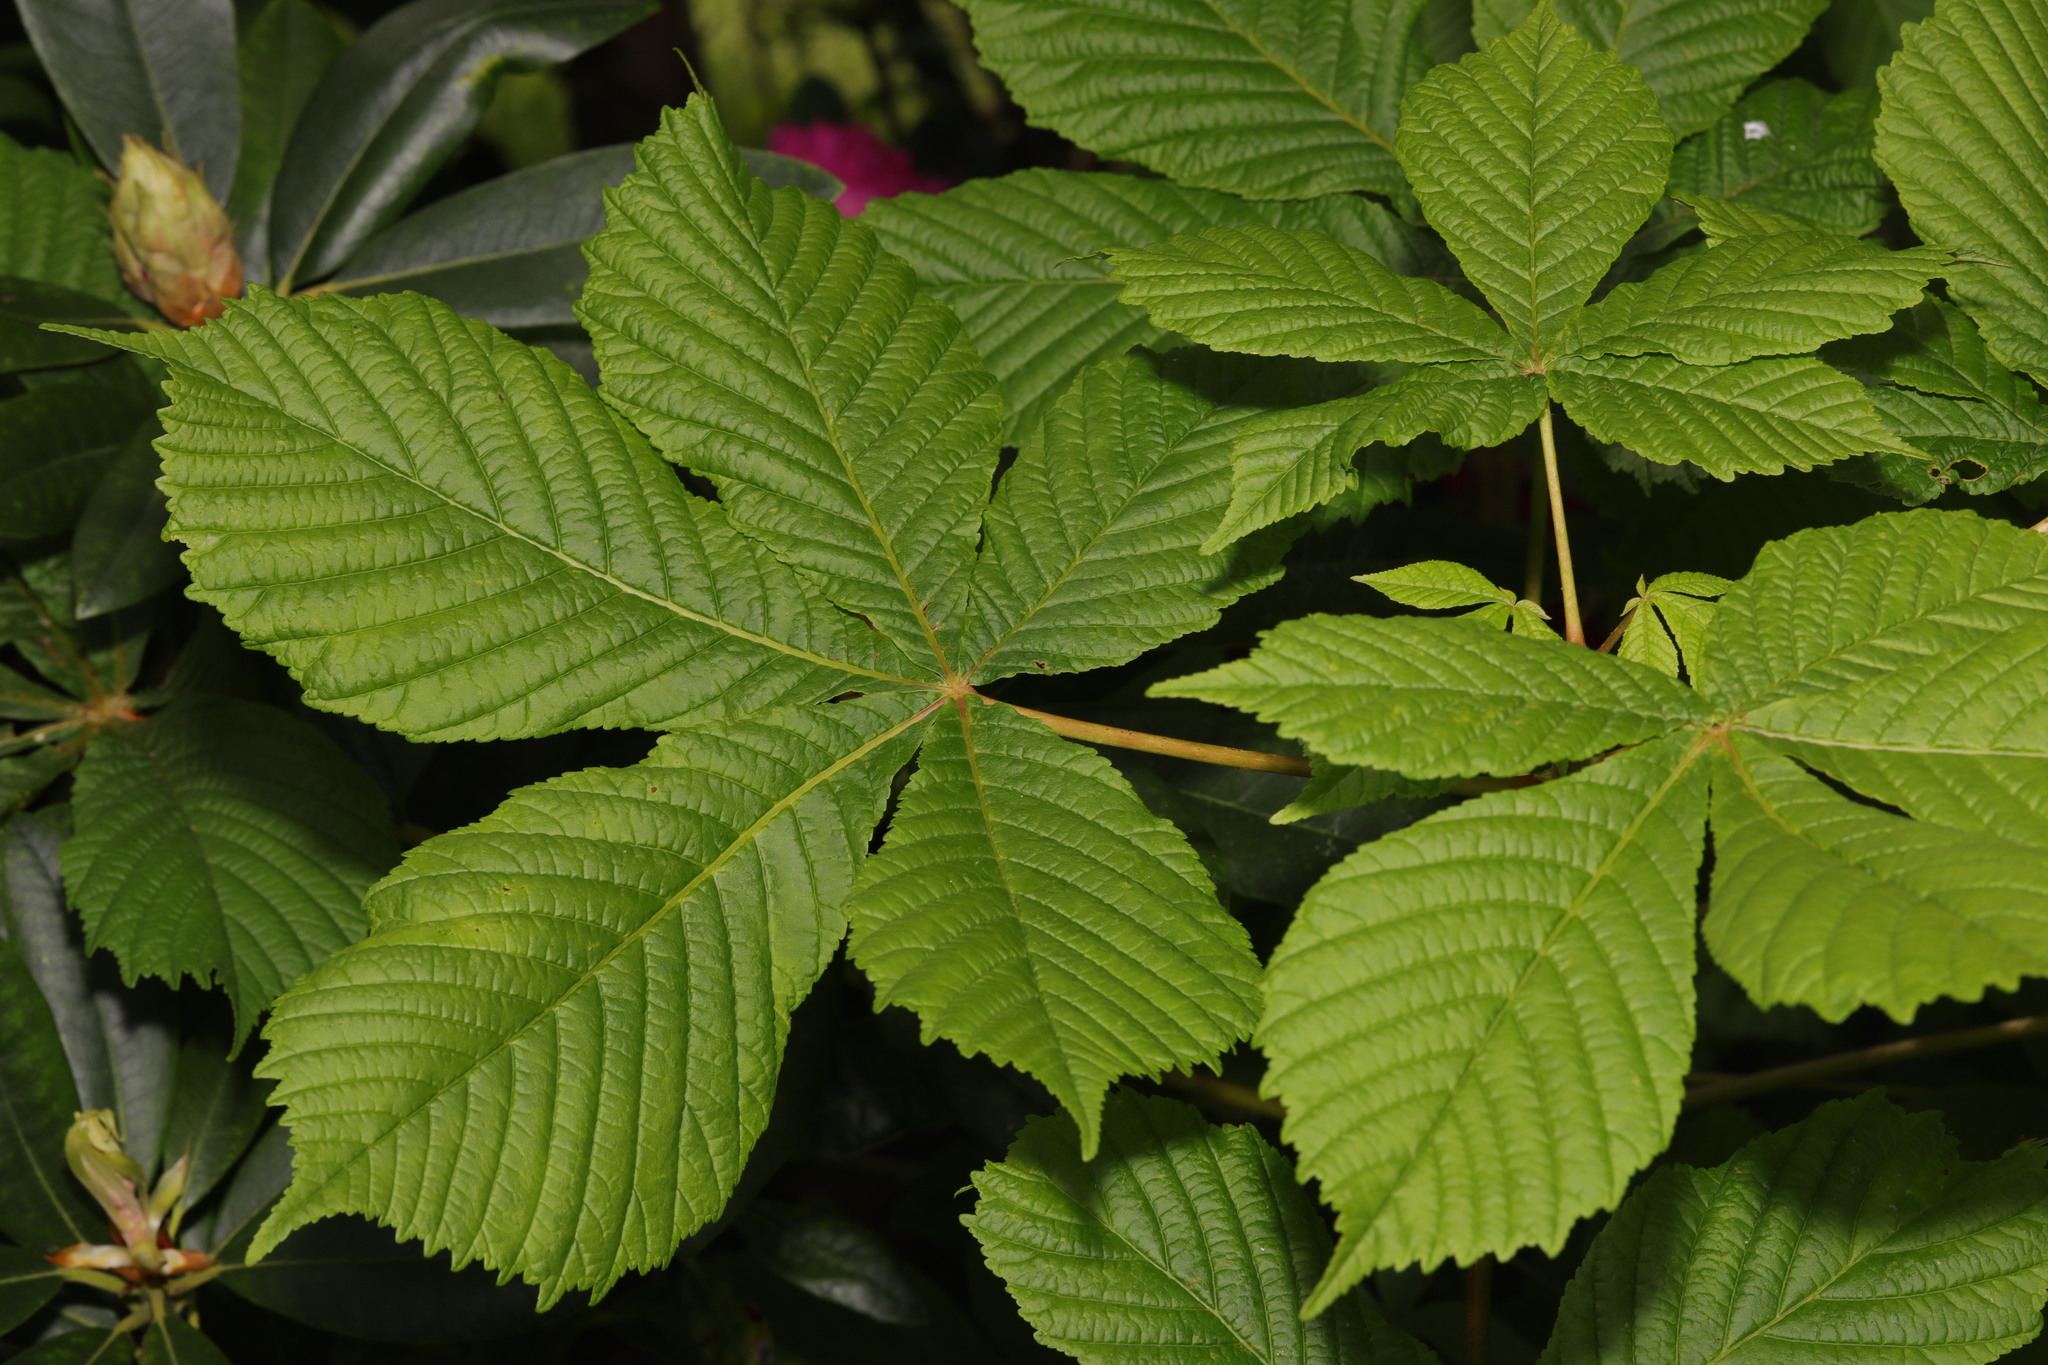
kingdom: Plantae
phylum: Tracheophyta
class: Magnoliopsida
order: Sapindales
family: Sapindaceae
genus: Aesculus
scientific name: Aesculus hippocastanum
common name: Horse-chestnut
